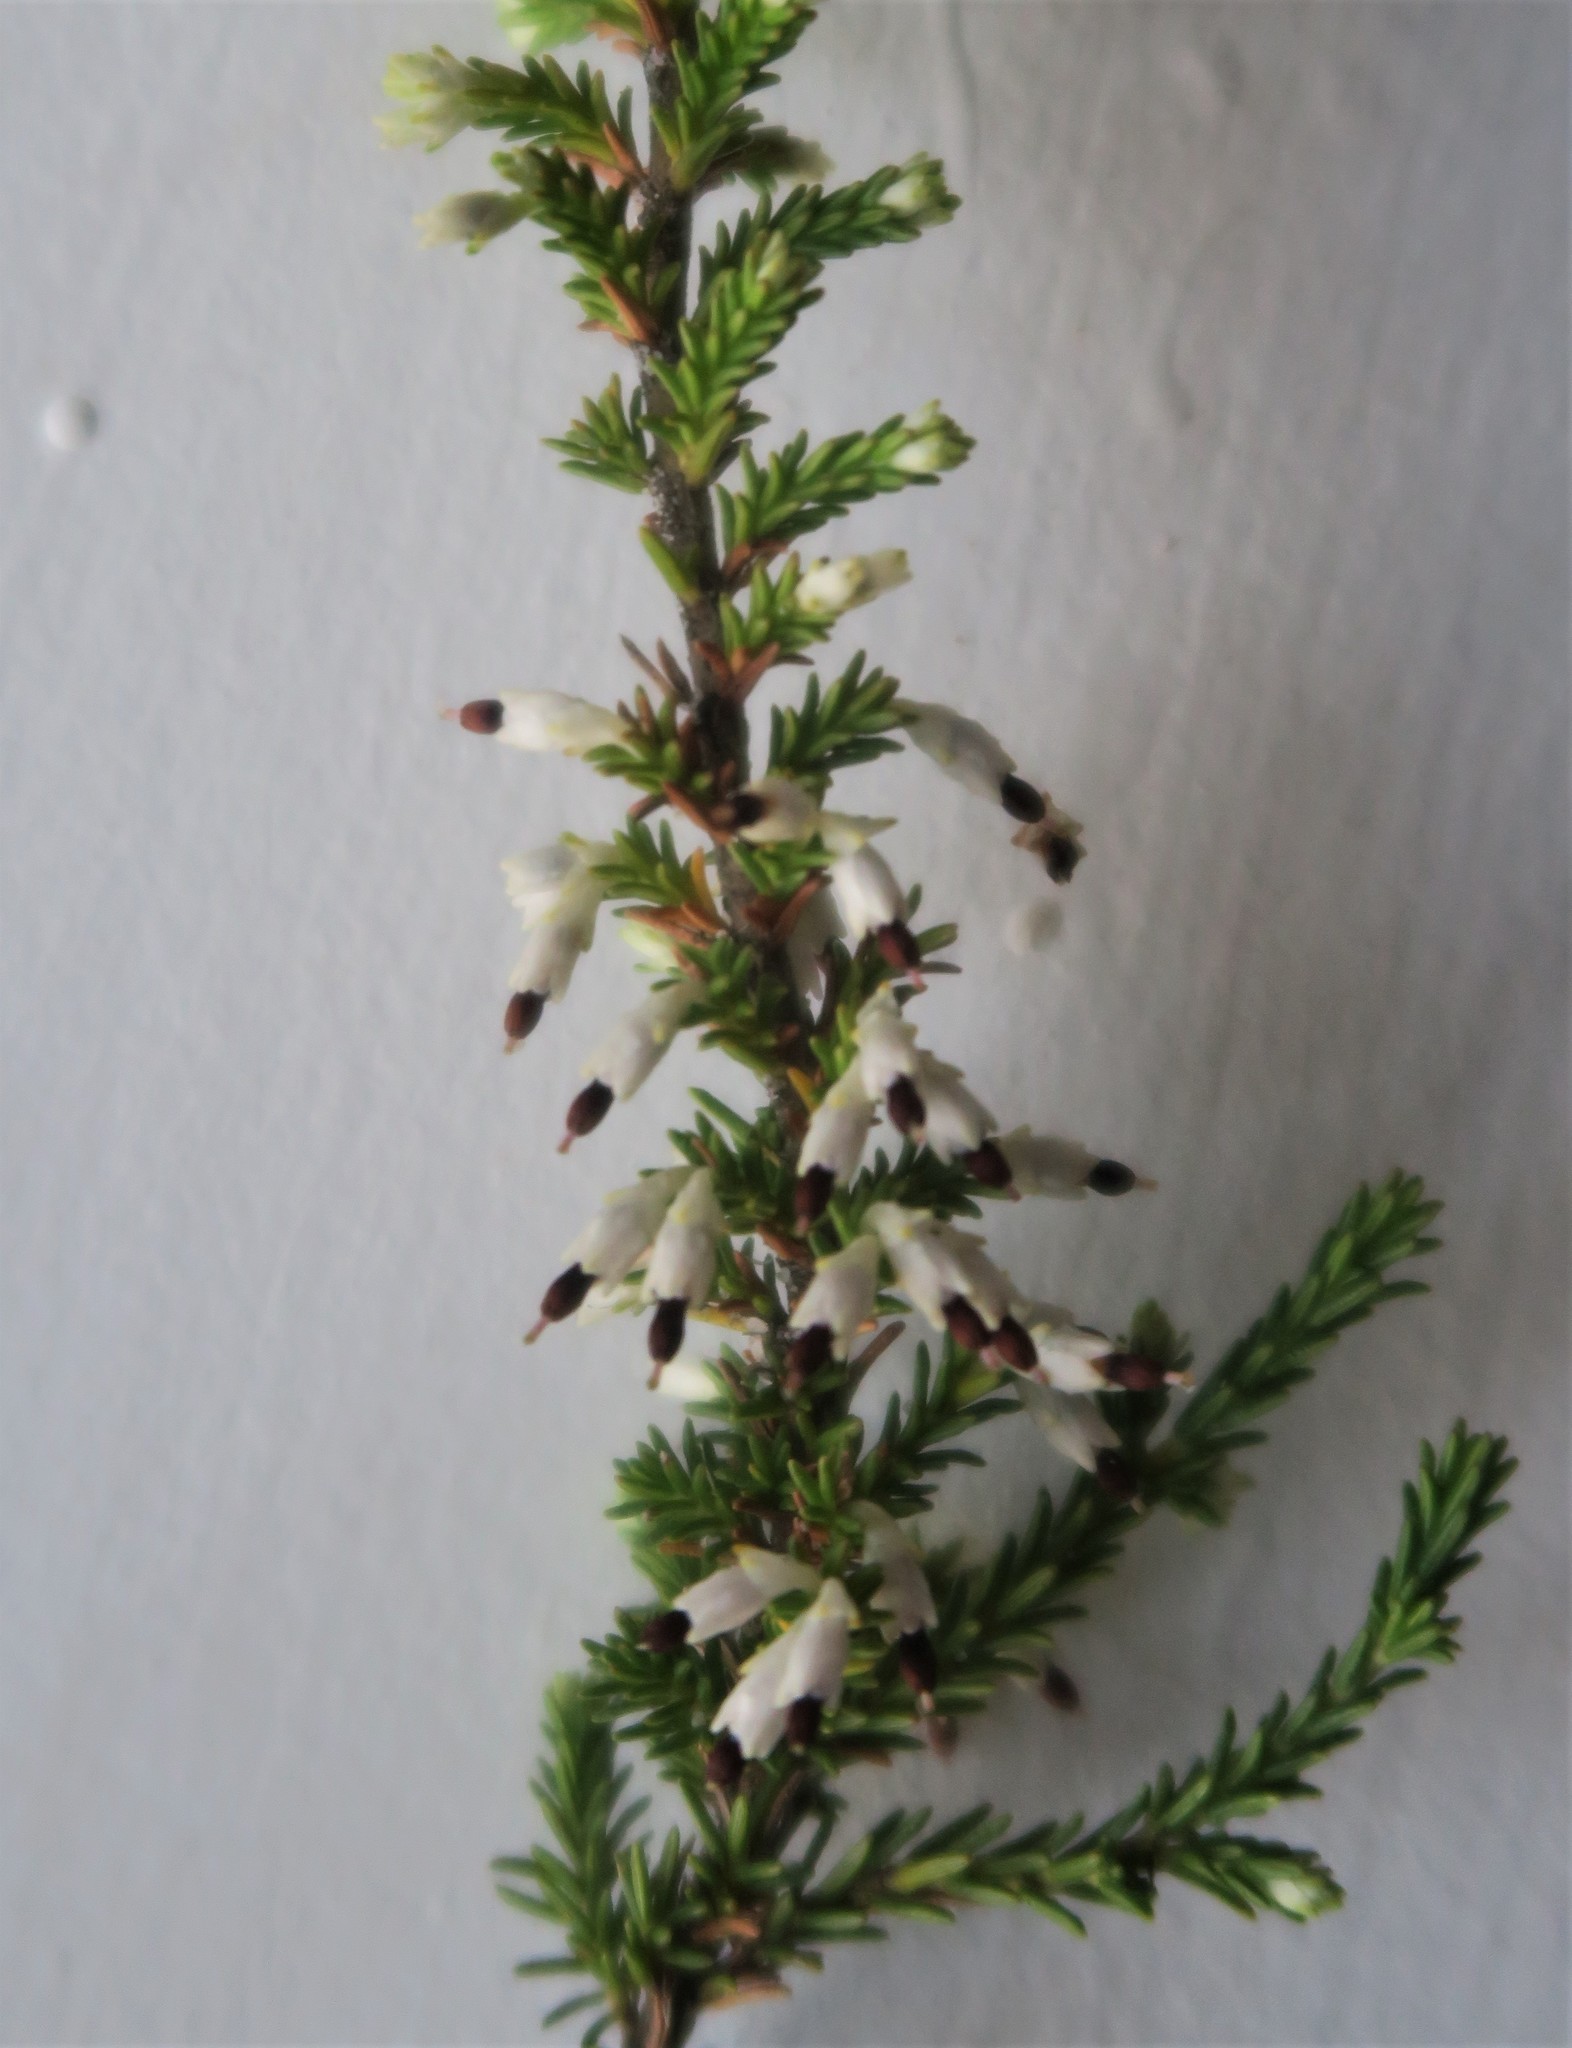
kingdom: Plantae
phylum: Tracheophyta
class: Magnoliopsida
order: Ericales
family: Ericaceae
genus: Erica
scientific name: Erica imbricata
